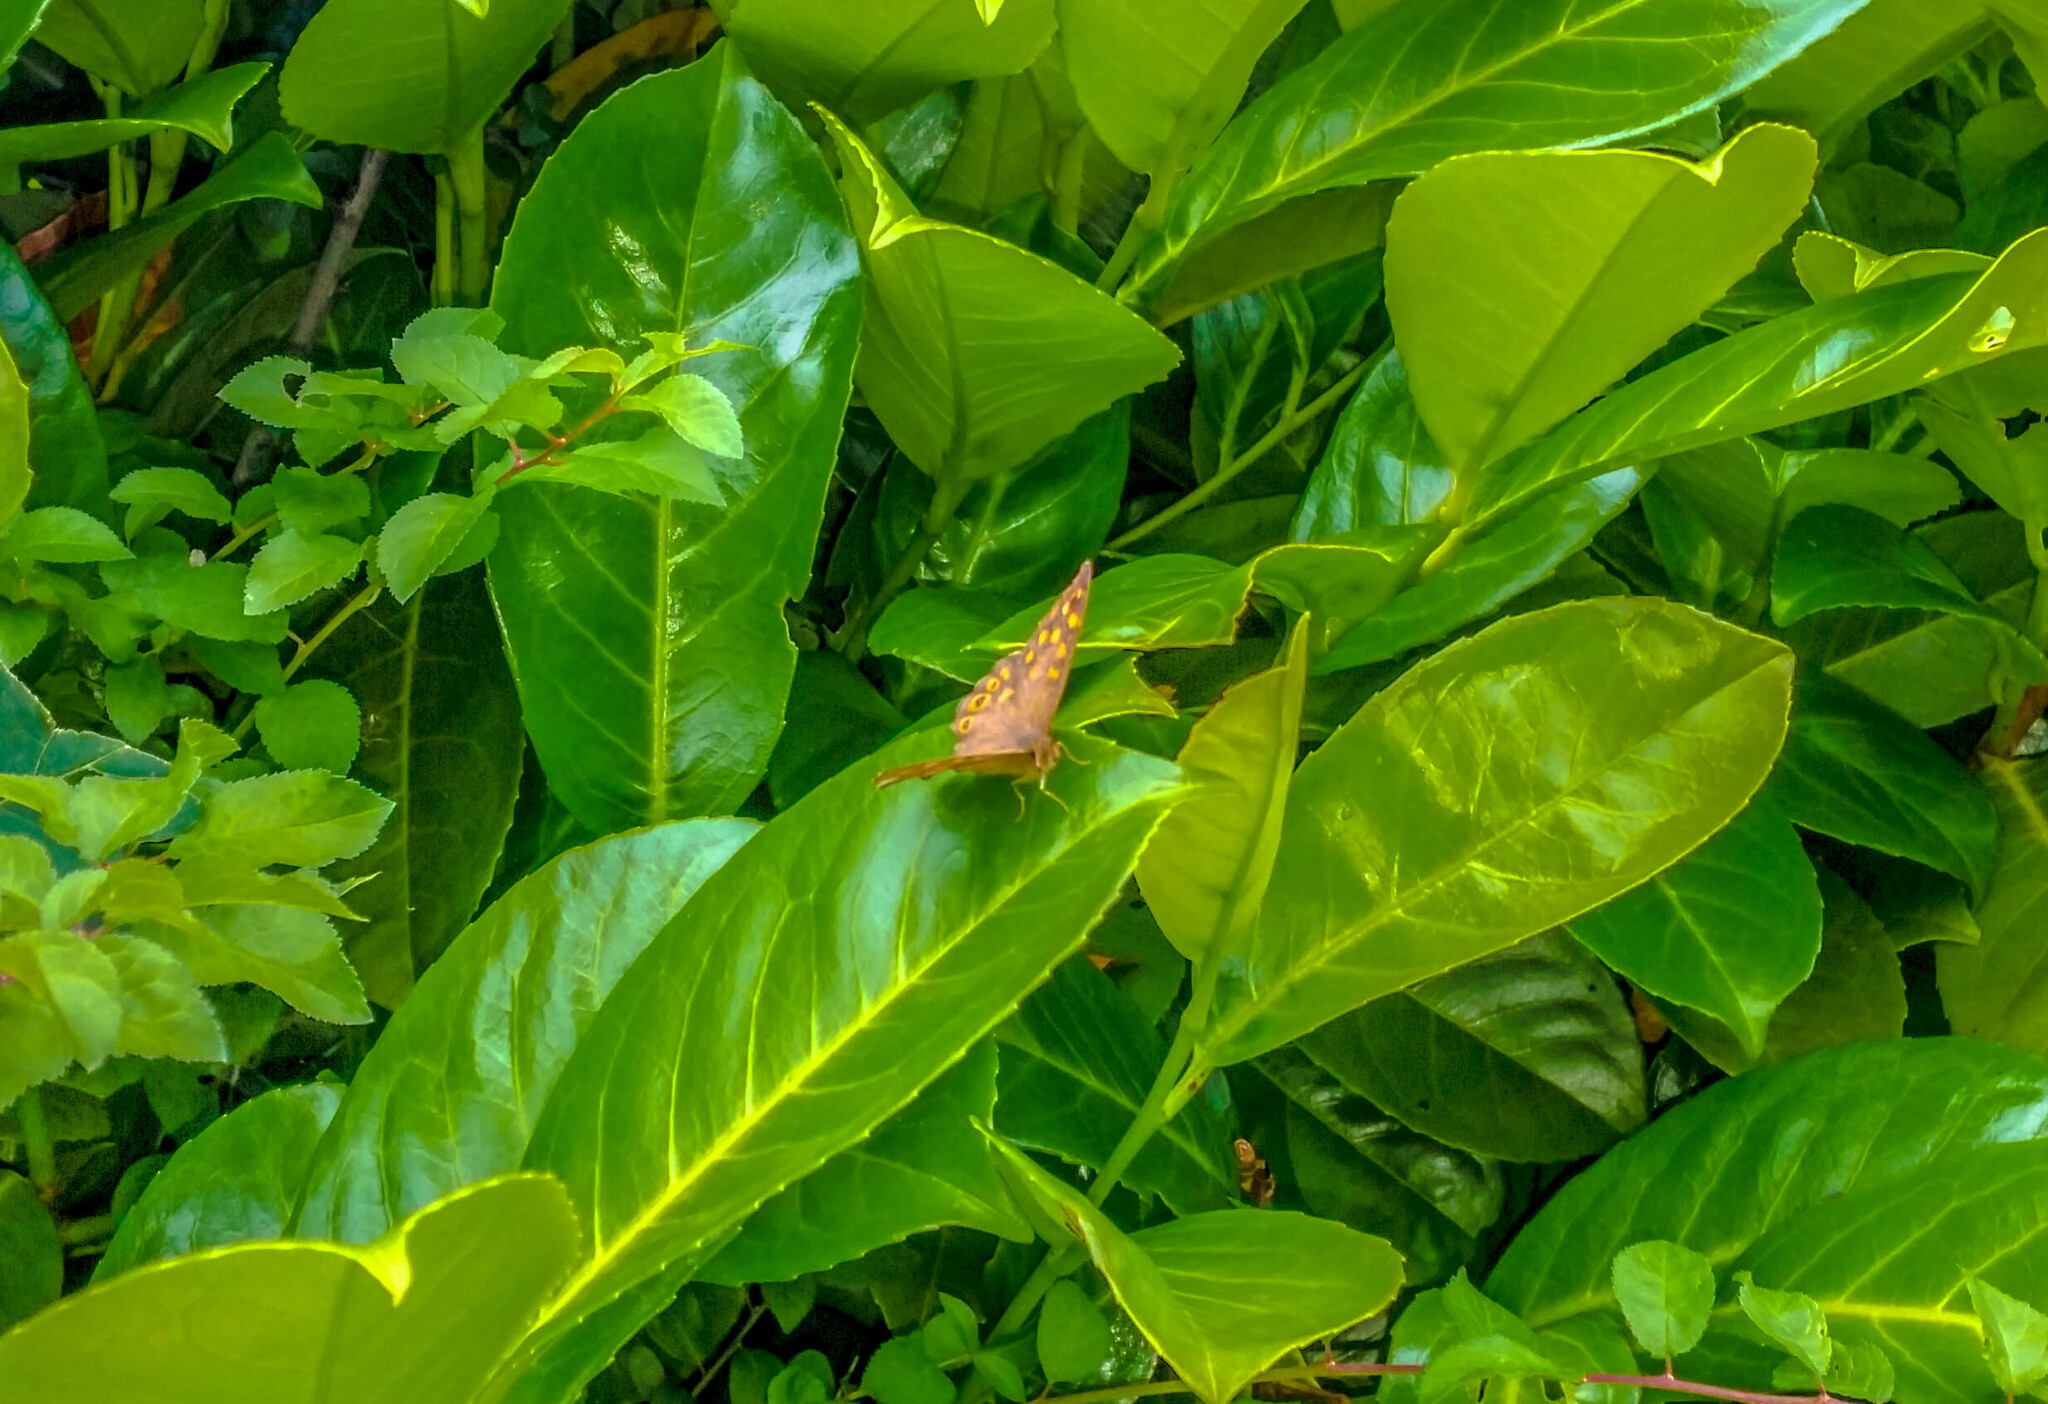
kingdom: Animalia
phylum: Arthropoda
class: Insecta
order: Lepidoptera
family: Nymphalidae
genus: Pararge
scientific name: Pararge aegeria
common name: Speckled wood
